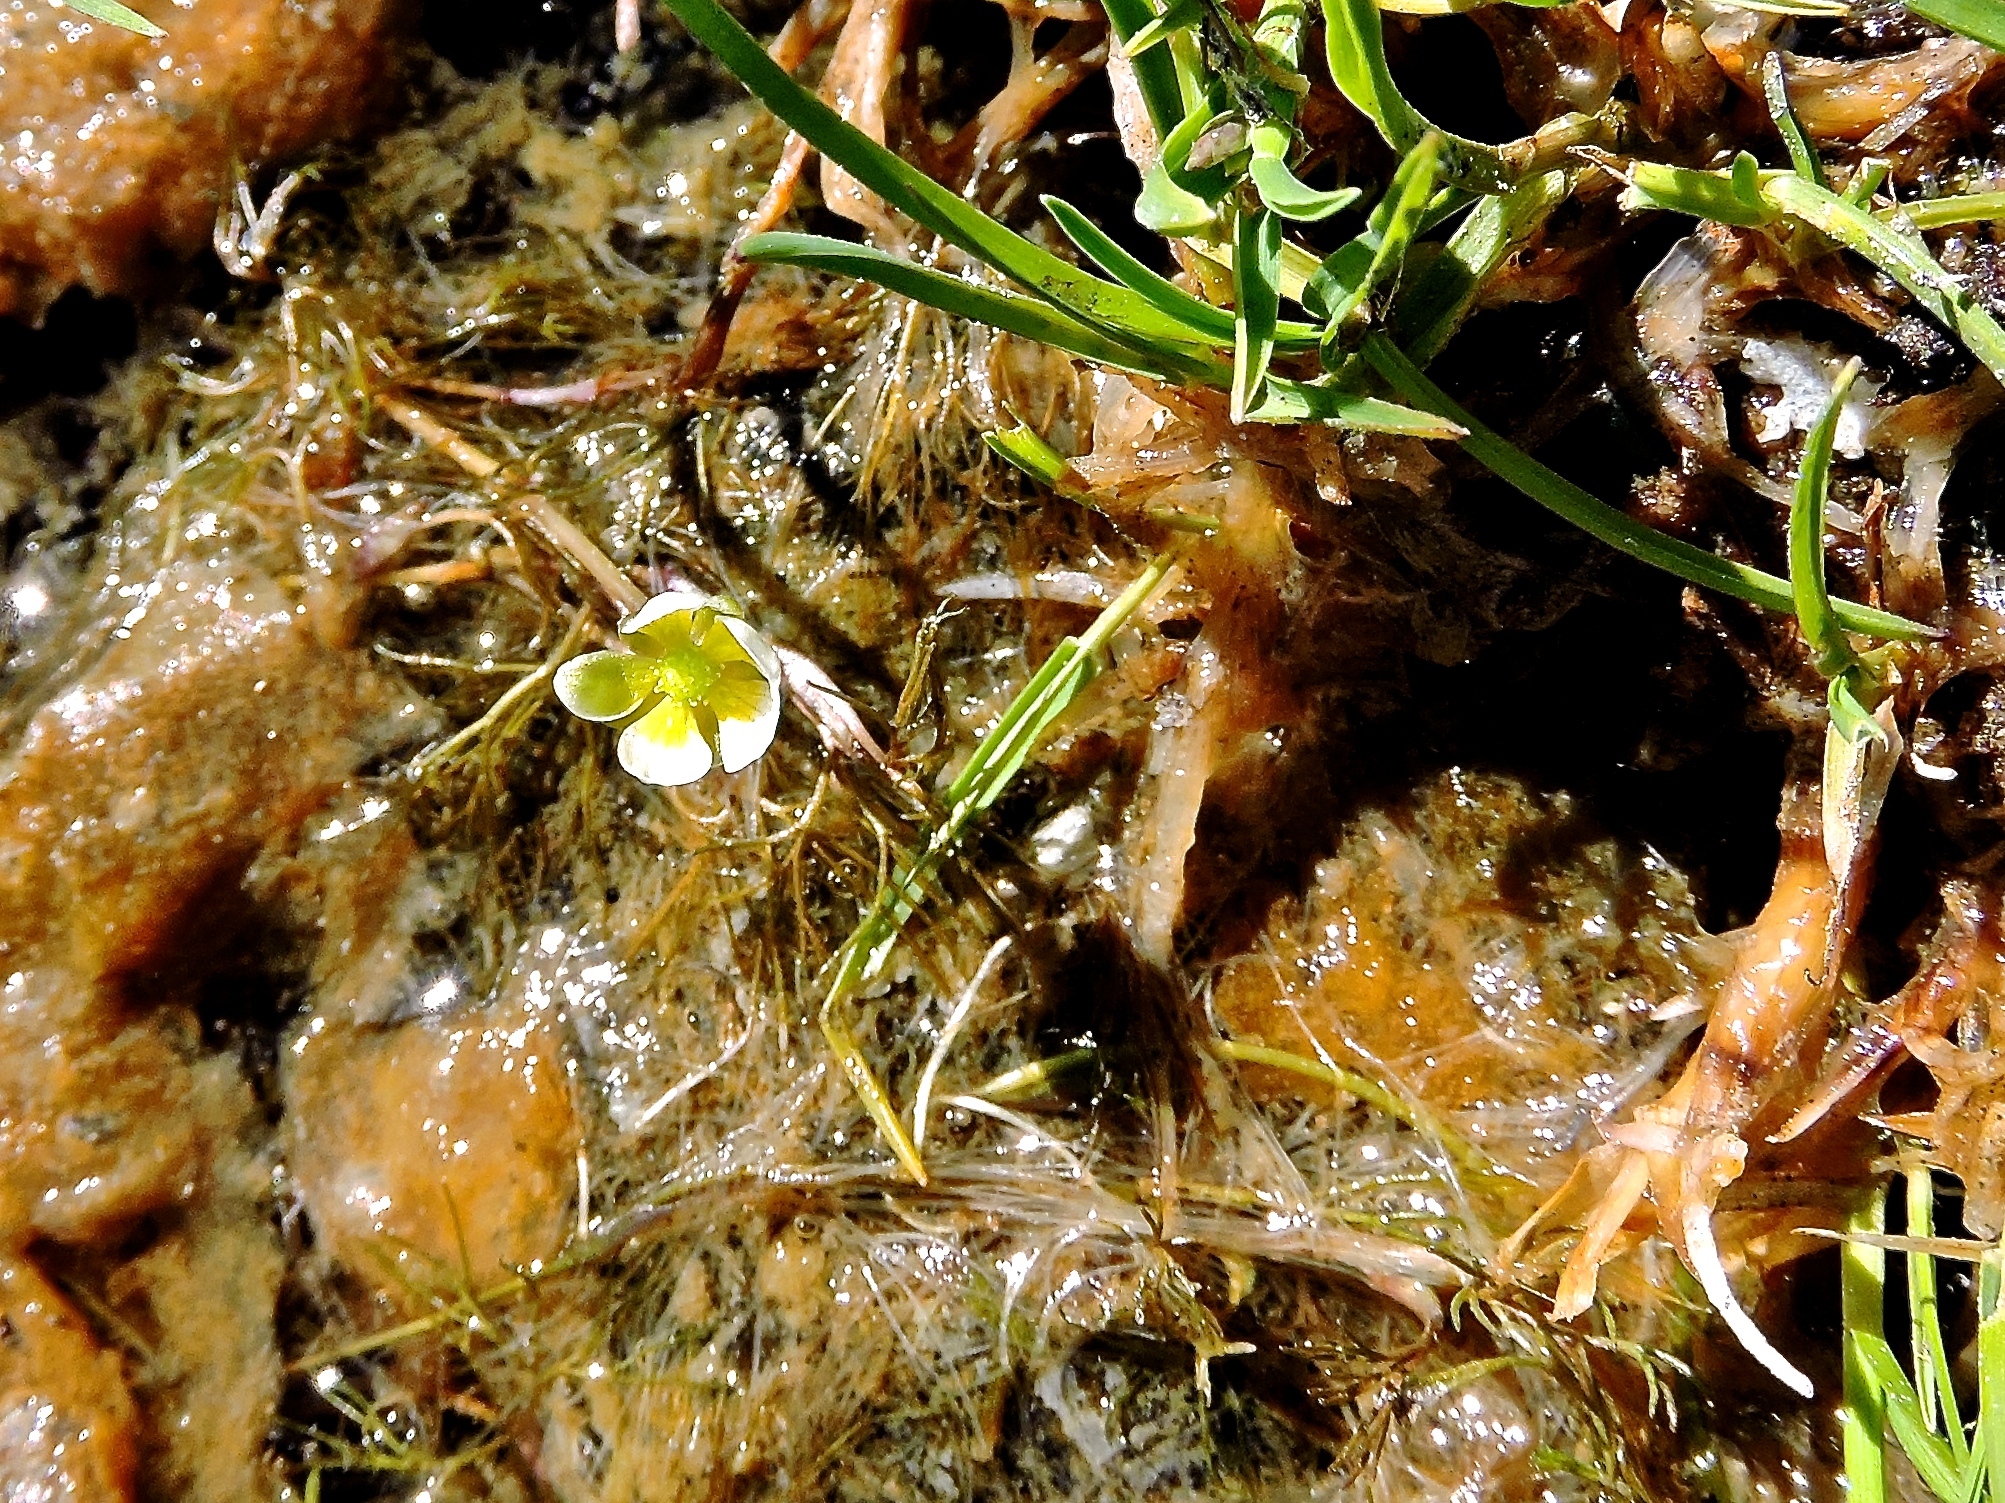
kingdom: Plantae
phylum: Tracheophyta
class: Magnoliopsida
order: Ranunculales
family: Ranunculaceae
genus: Ranunculus
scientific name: Ranunculus confervoides
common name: Delicate buttercup
